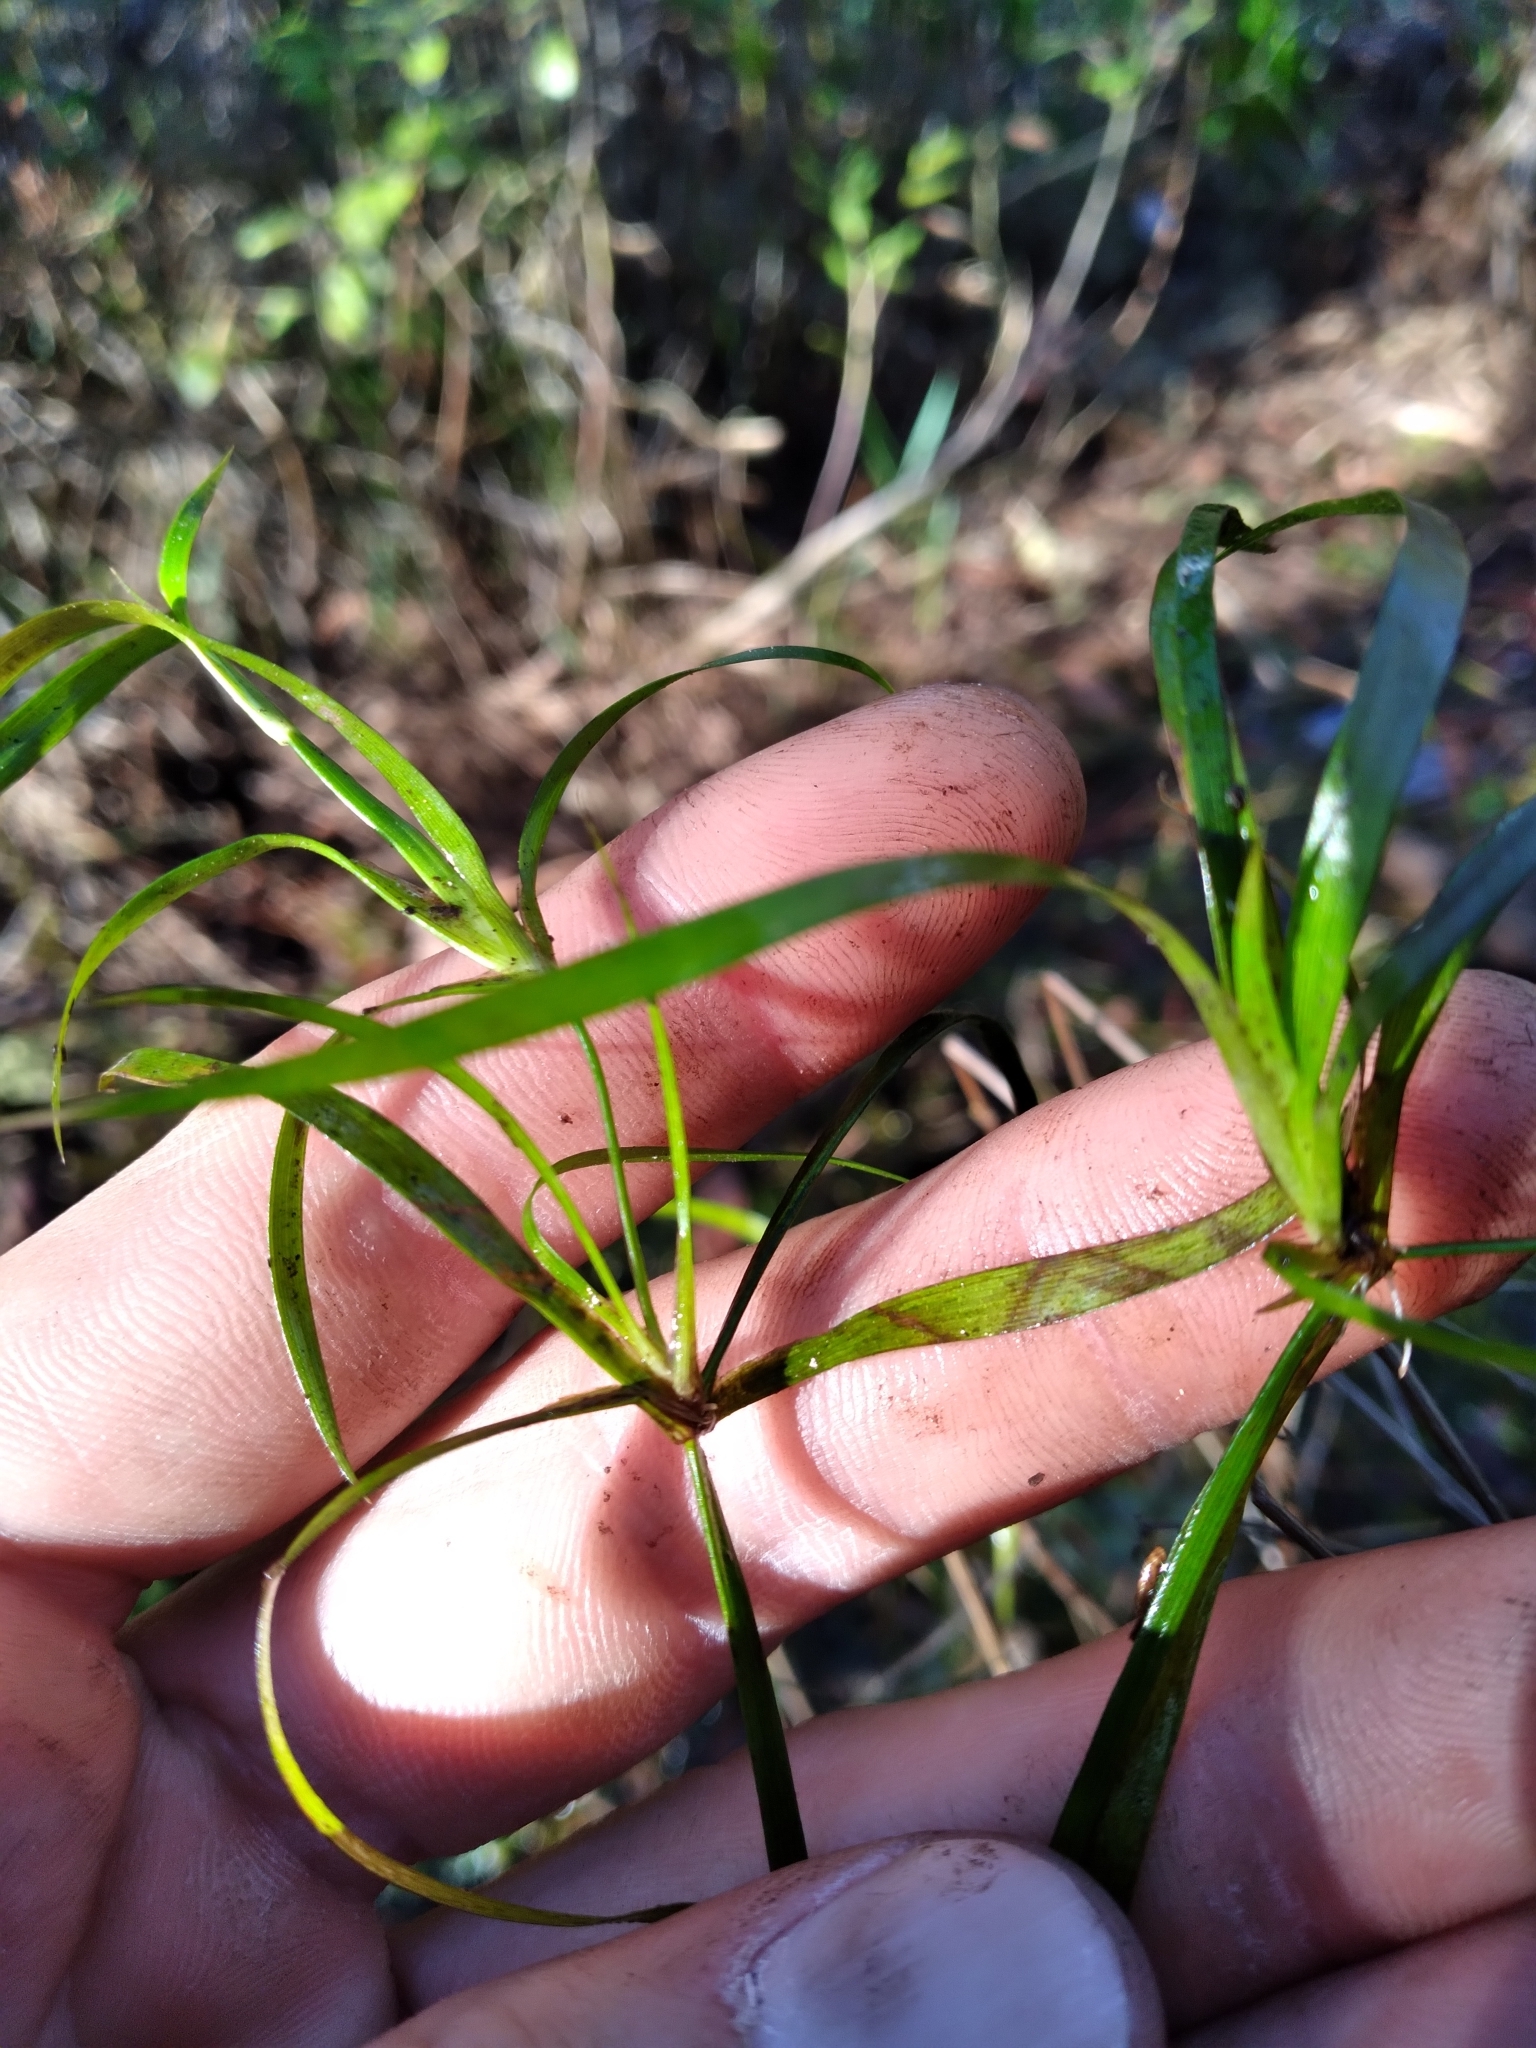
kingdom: Plantae
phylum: Tracheophyta
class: Liliopsida
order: Poales
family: Juncaceae
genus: Juncus
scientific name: Juncus repens
